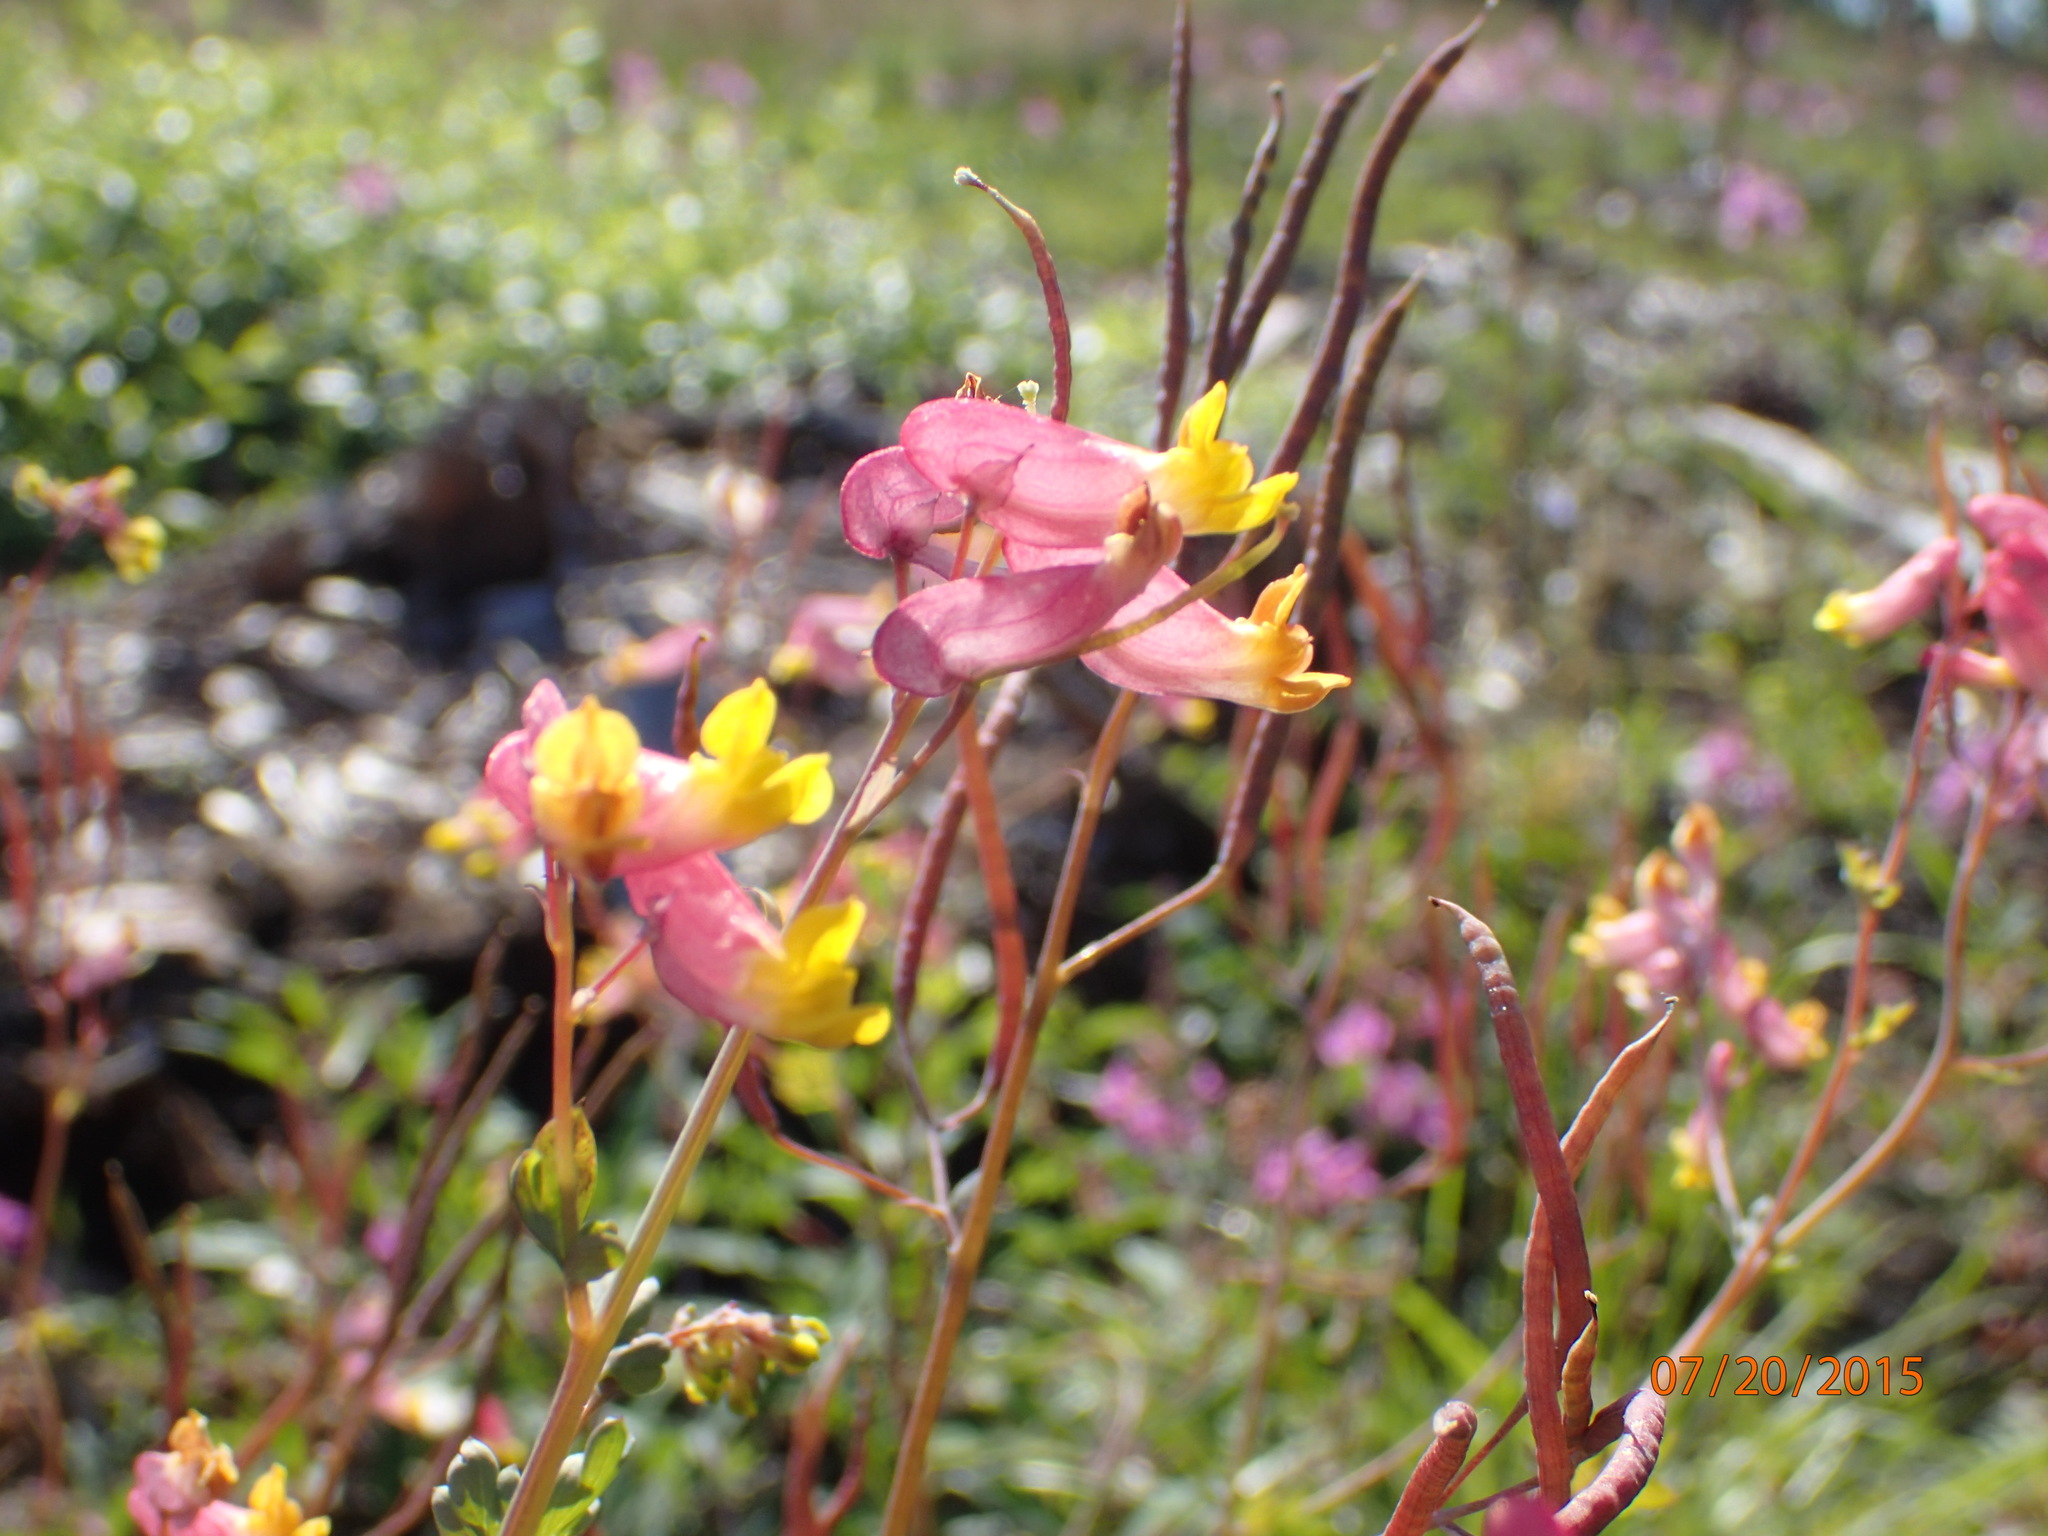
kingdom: Plantae
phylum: Tracheophyta
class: Magnoliopsida
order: Ranunculales
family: Papaveraceae
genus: Capnoides
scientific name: Capnoides sempervirens
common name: Rock harlequin
